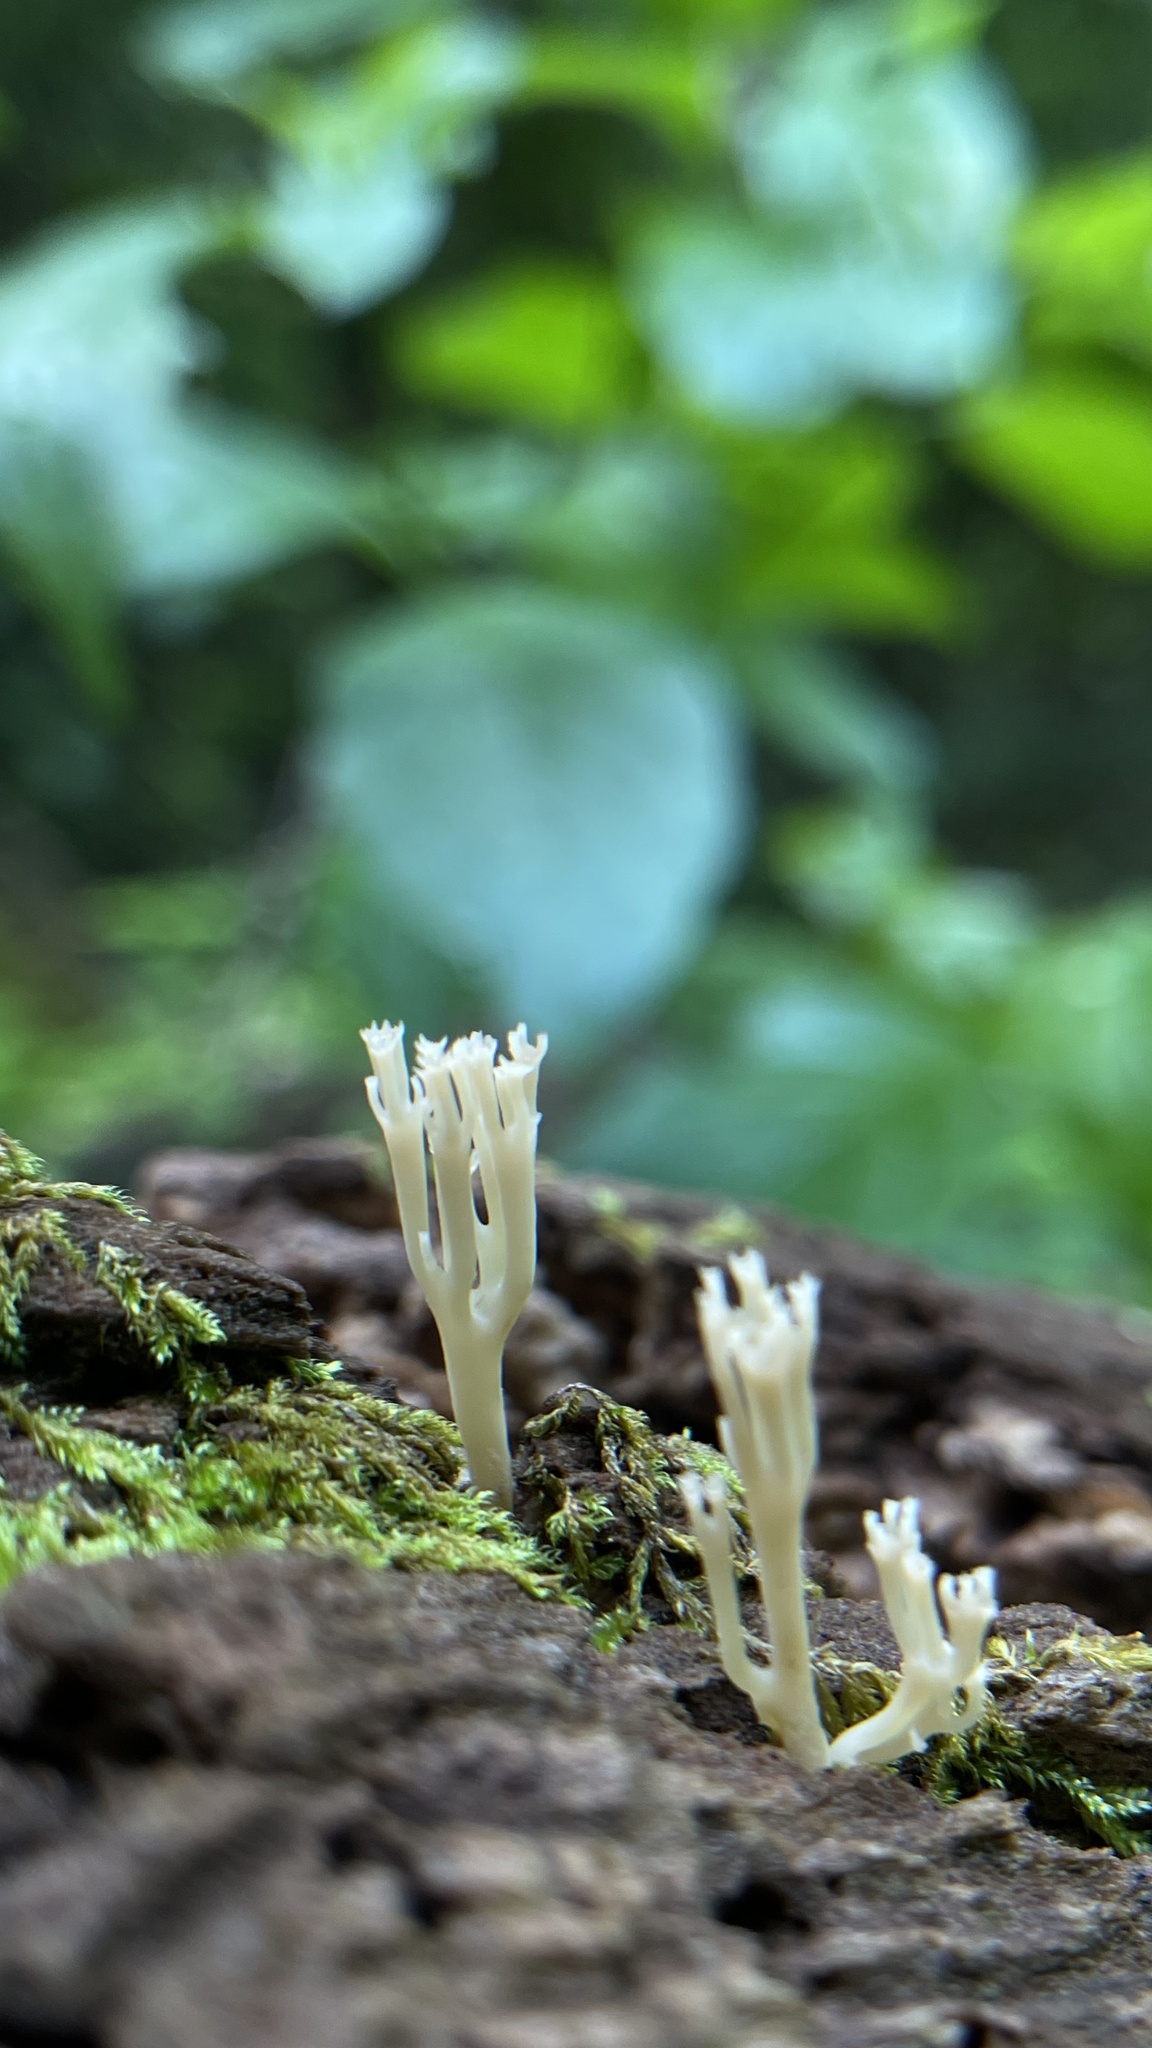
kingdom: Fungi
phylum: Basidiomycota
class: Agaricomycetes
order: Russulales
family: Auriscalpiaceae
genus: Artomyces
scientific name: Artomyces pyxidatus
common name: Crown-tipped coral fungus
